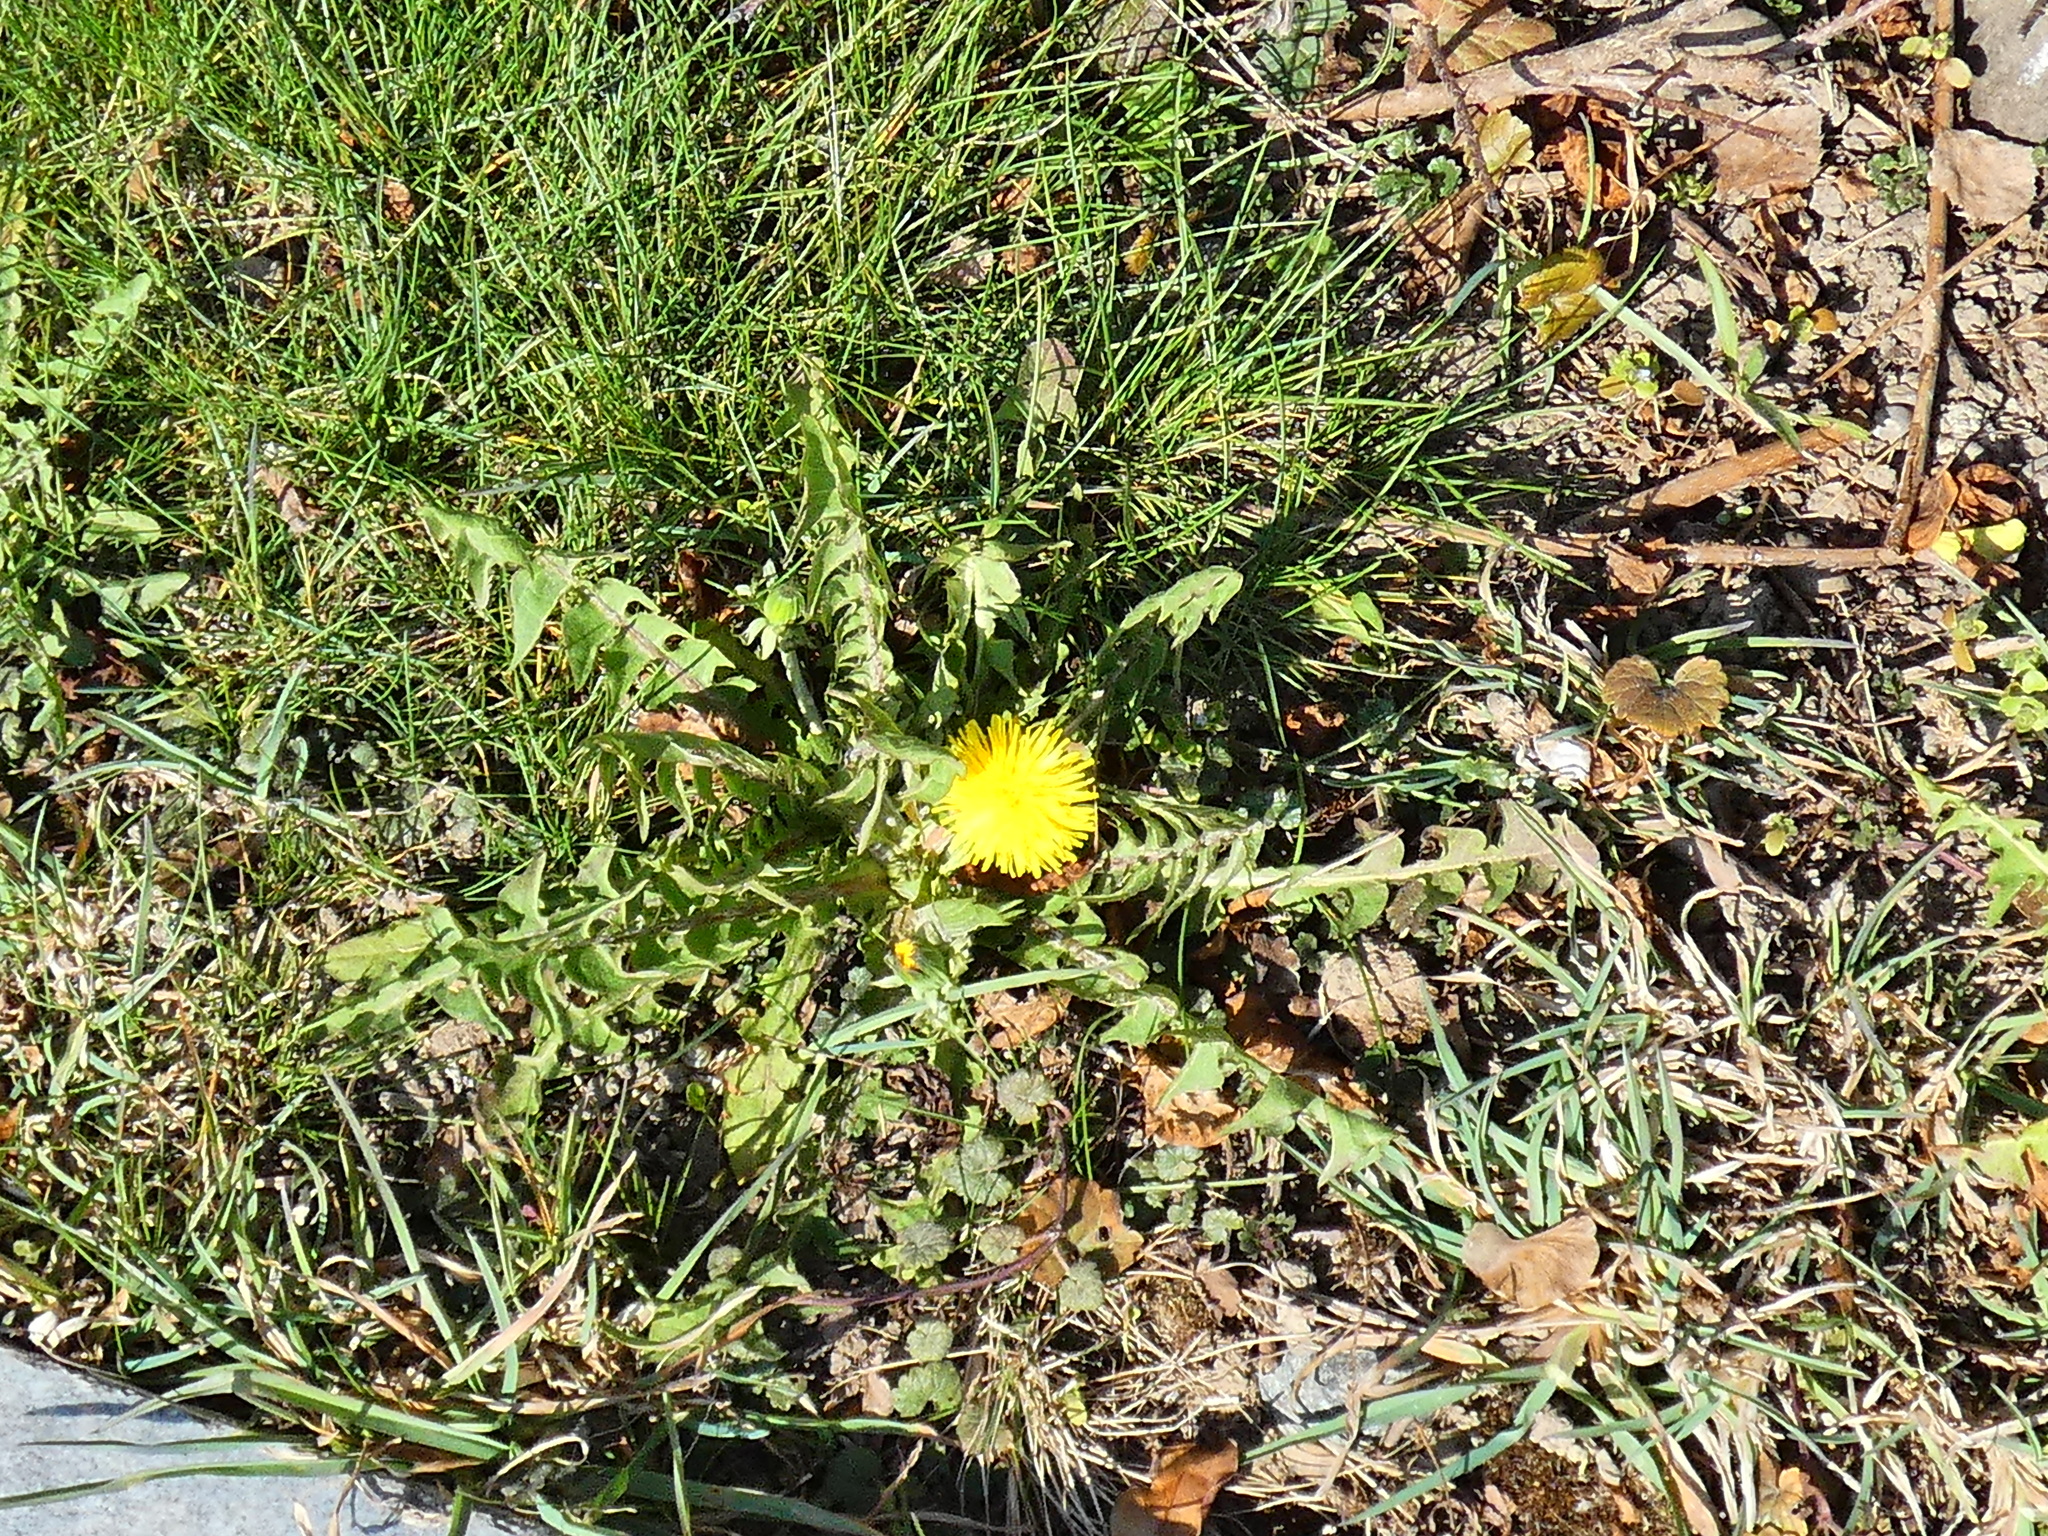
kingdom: Plantae
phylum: Tracheophyta
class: Magnoliopsida
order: Asterales
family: Asteraceae
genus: Taraxacum
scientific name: Taraxacum officinale
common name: Common dandelion
